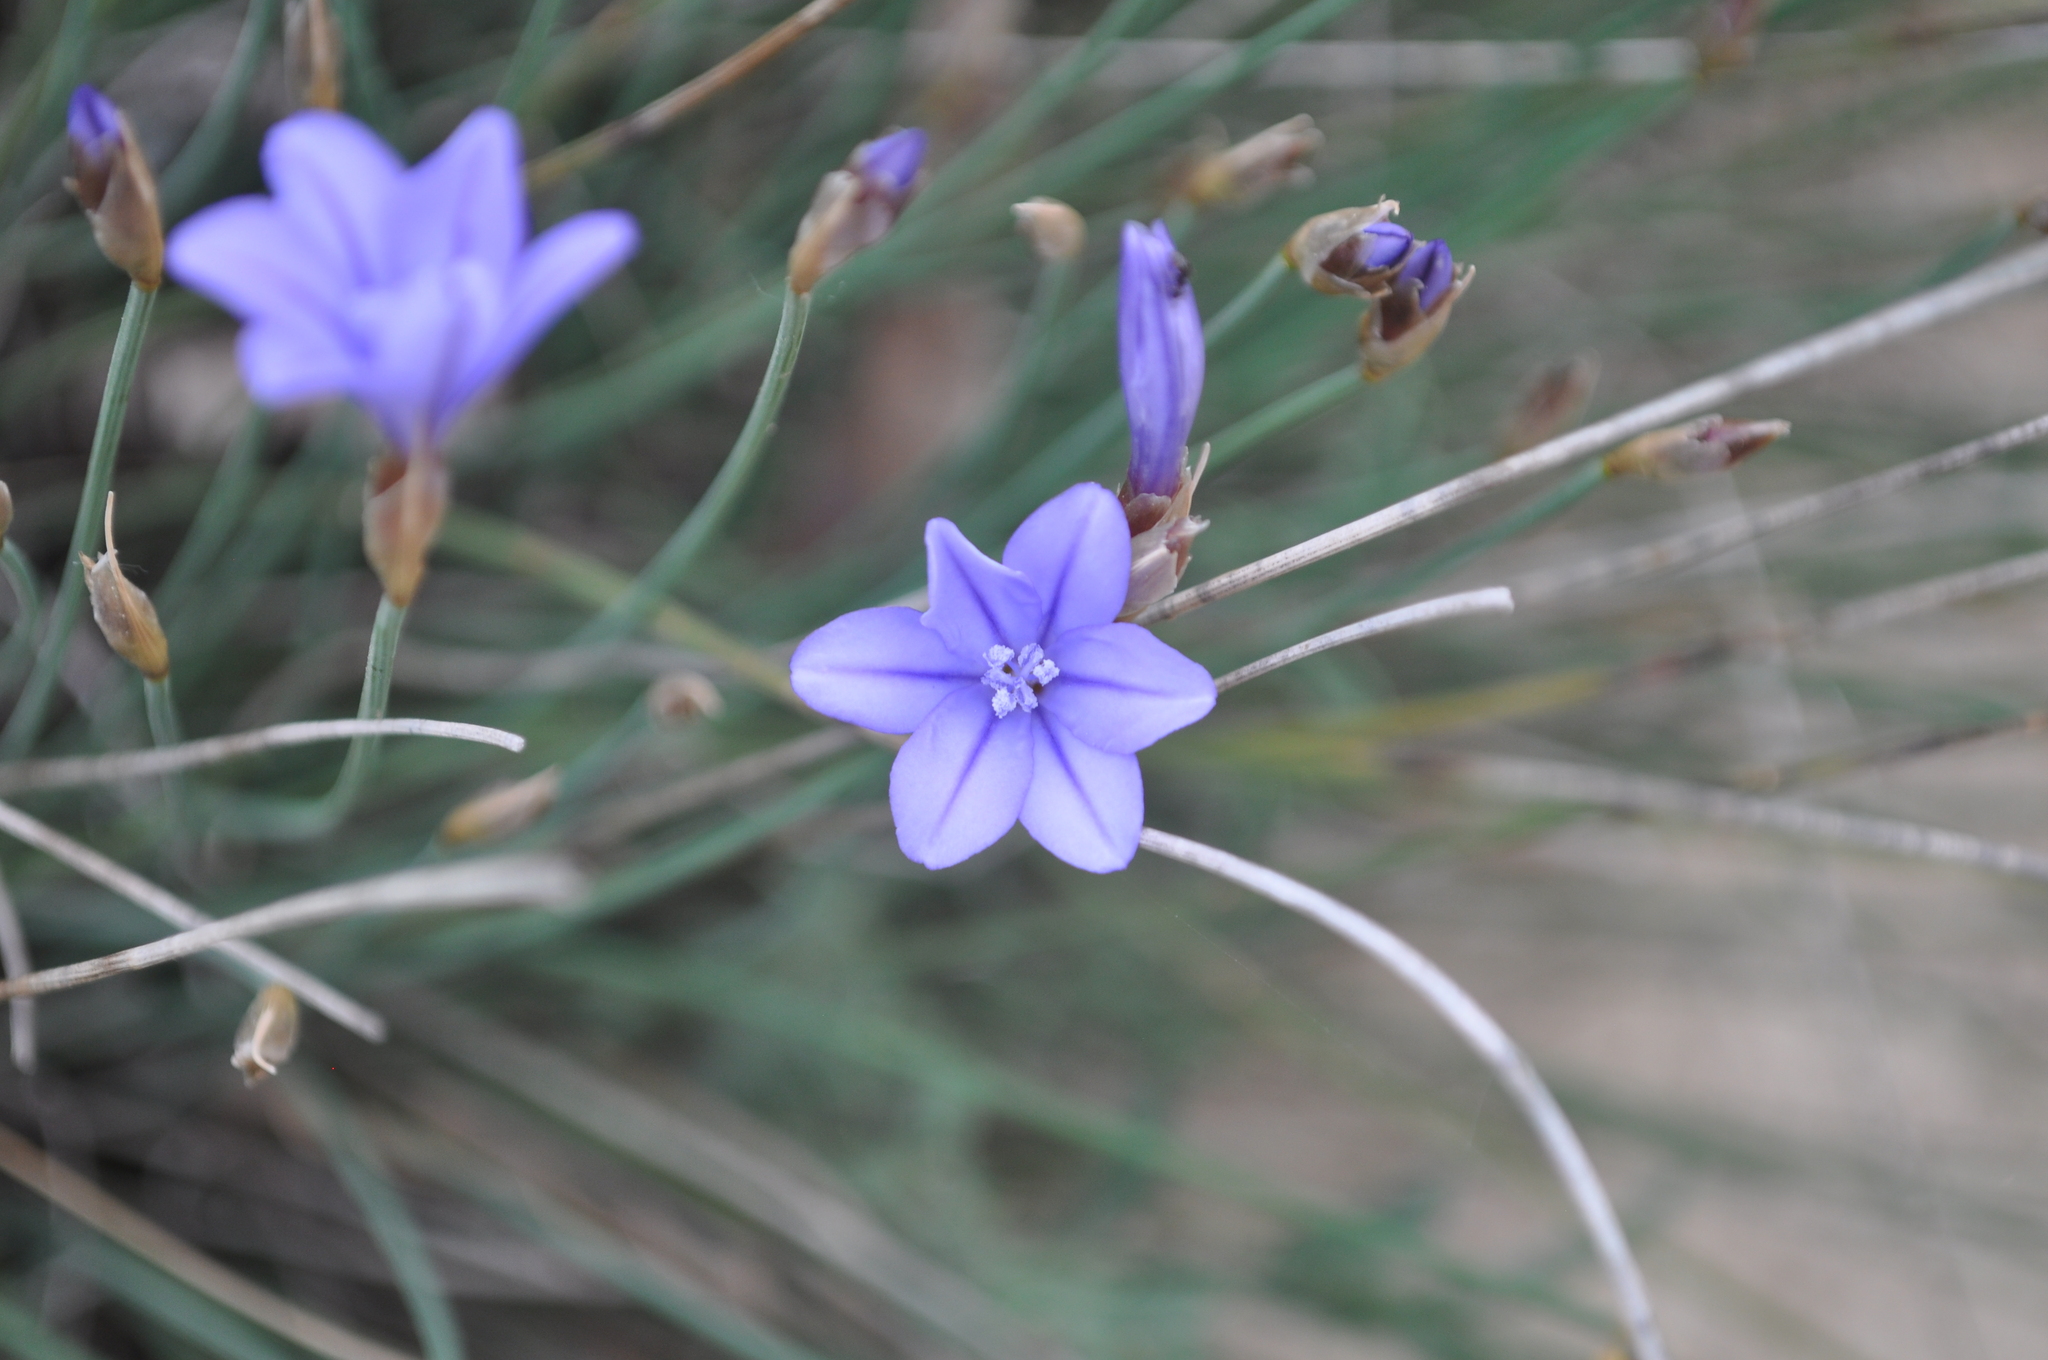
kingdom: Plantae
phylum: Tracheophyta
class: Liliopsida
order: Asparagales
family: Asparagaceae
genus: Aphyllanthes
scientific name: Aphyllanthes monspeliensis
